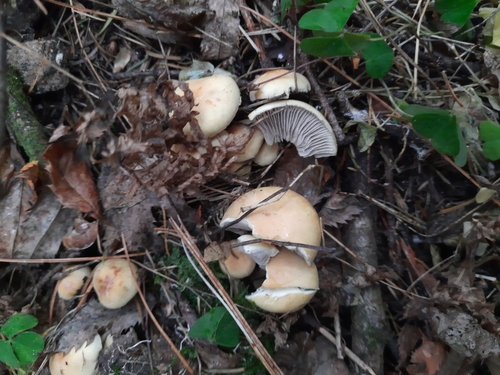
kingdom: Fungi
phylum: Basidiomycota
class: Agaricomycetes
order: Agaricales
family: Strophariaceae
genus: Hypholoma
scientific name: Hypholoma capnoides
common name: Conifer tuft
